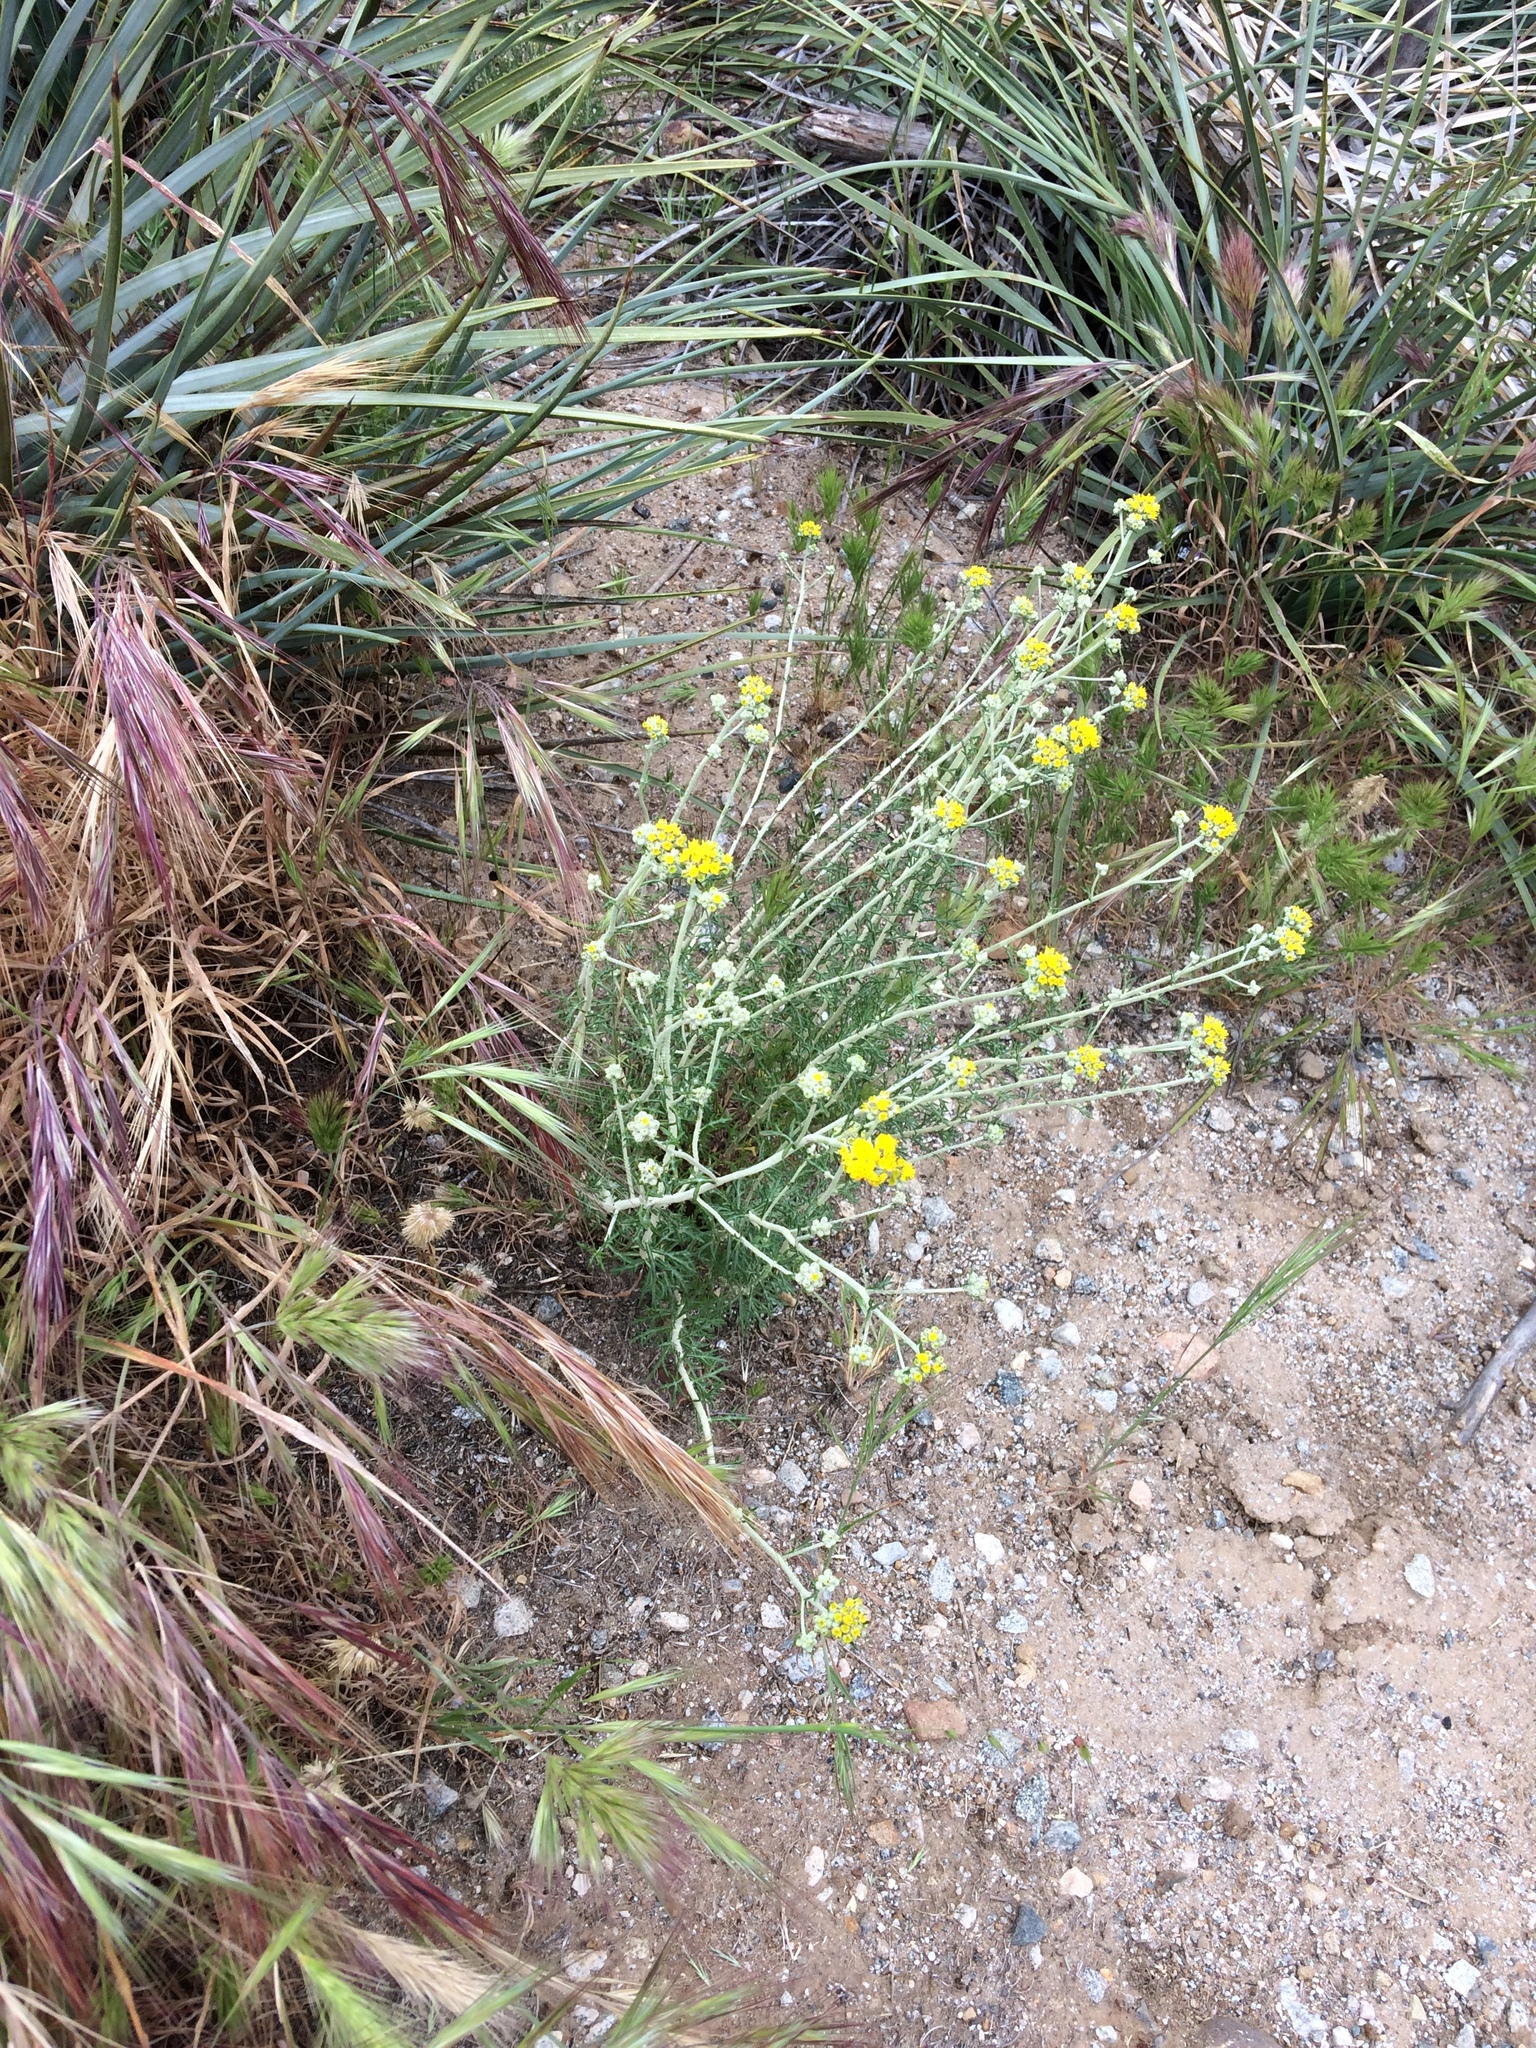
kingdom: Plantae
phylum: Tracheophyta
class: Magnoliopsida
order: Asterales
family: Asteraceae
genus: Eriophyllum
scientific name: Eriophyllum confertiflorum
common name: Golden-yarrow
